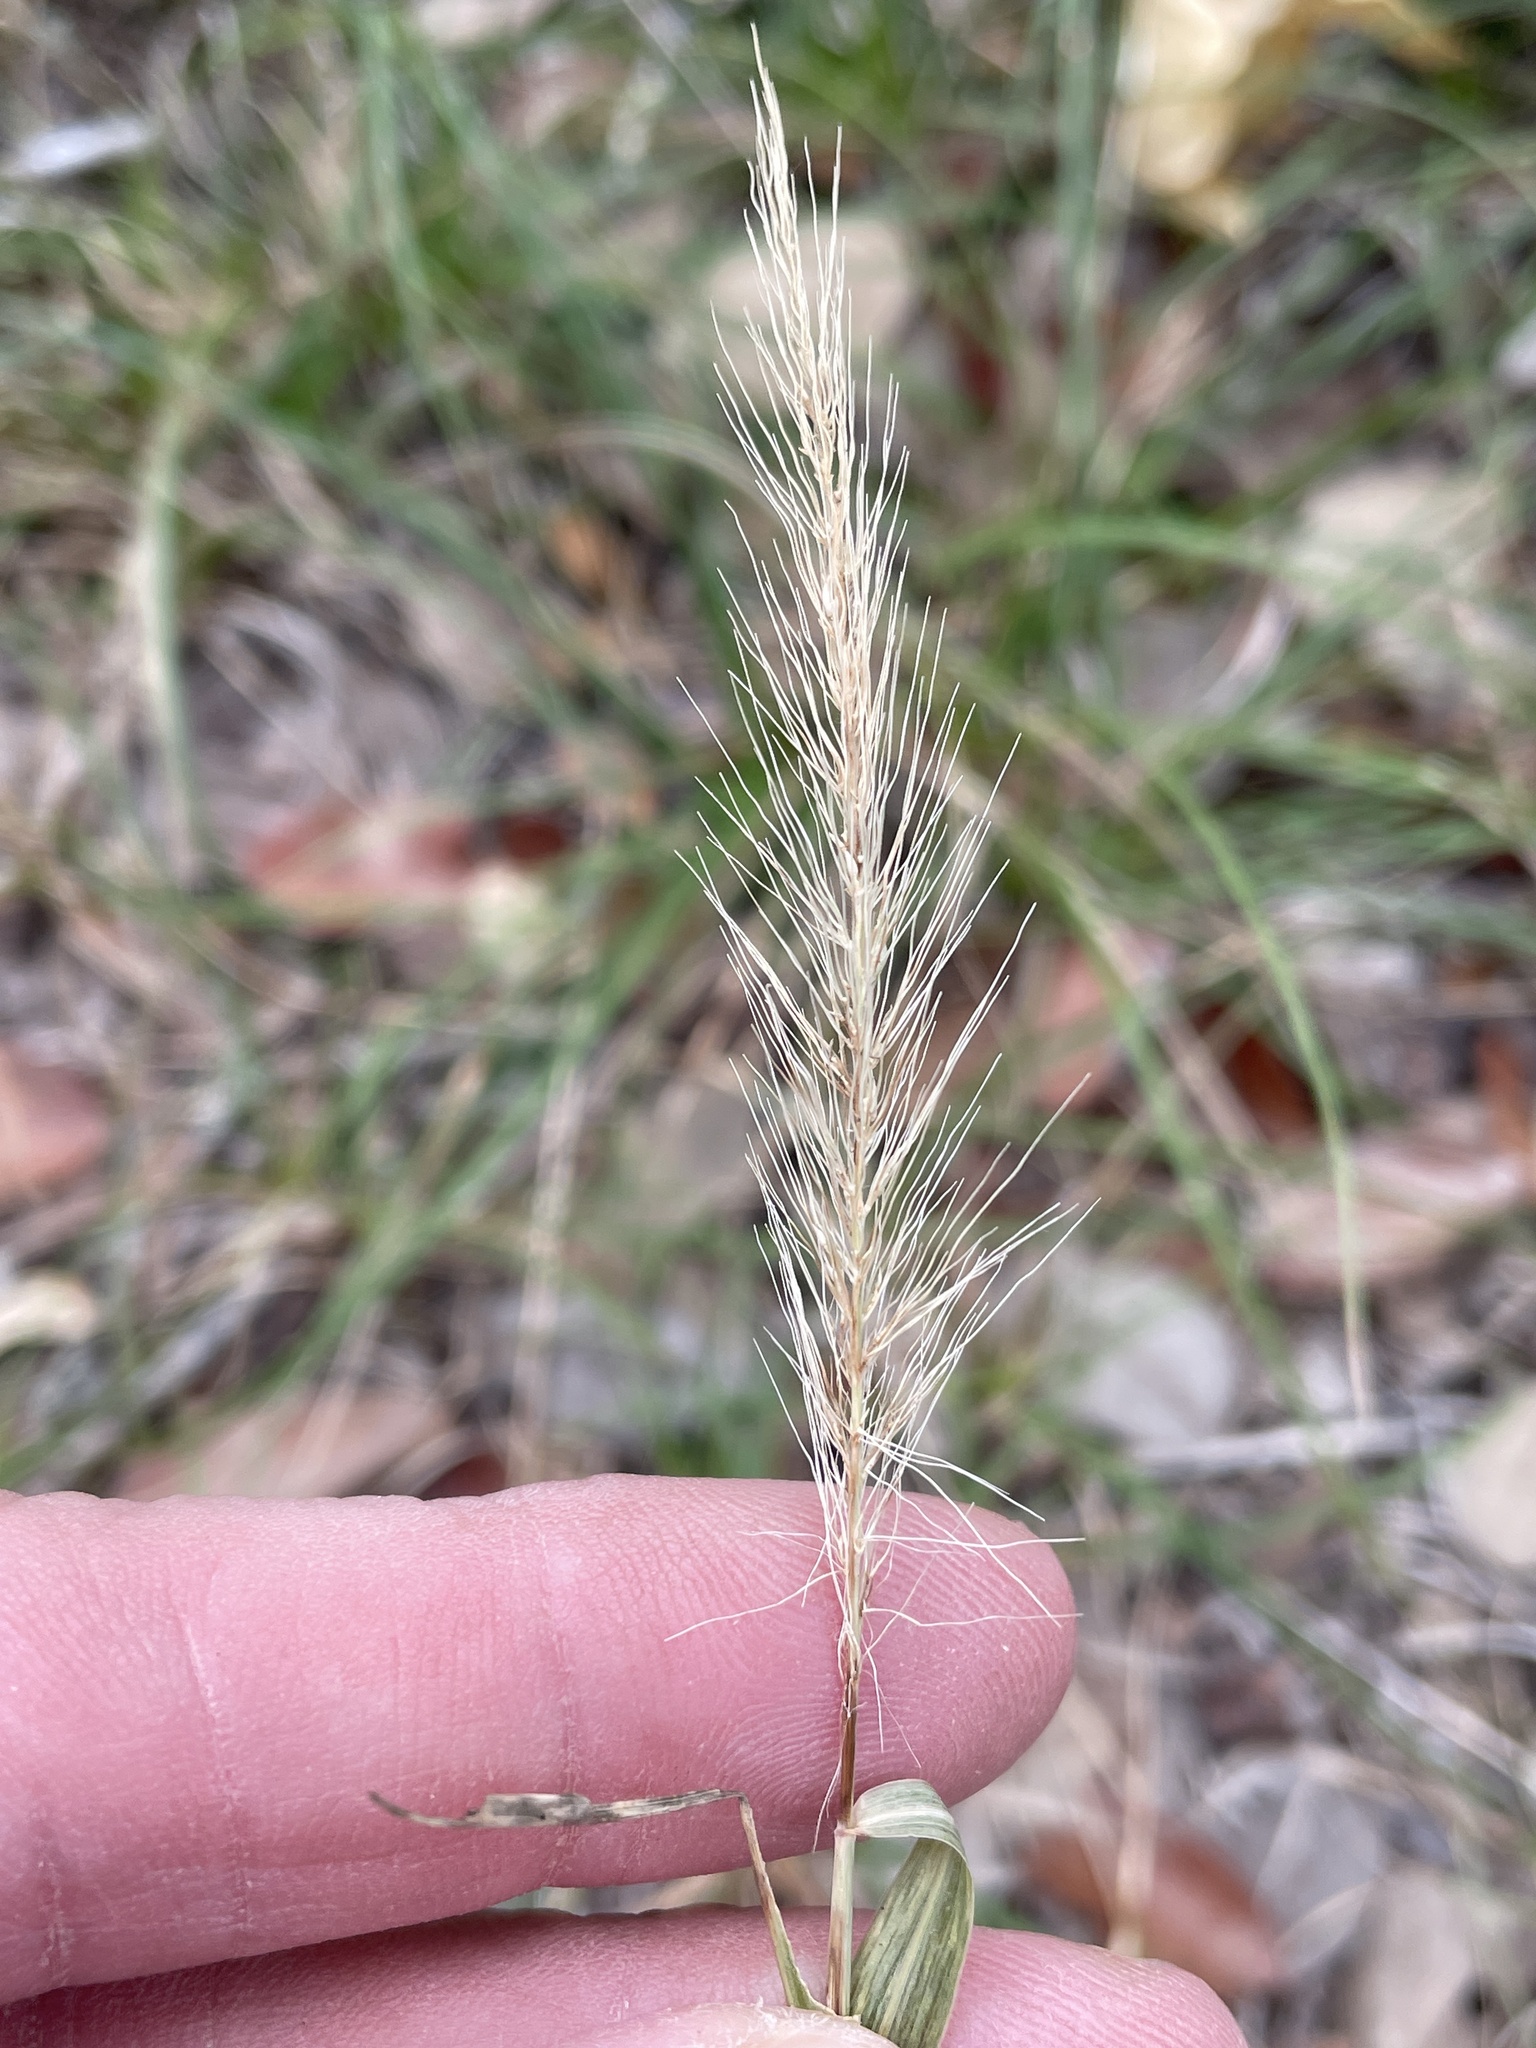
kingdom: Plantae
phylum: Tracheophyta
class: Liliopsida
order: Poales
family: Poaceae
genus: Setaria
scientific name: Setaria scheelei
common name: Southwestern bristle grass
